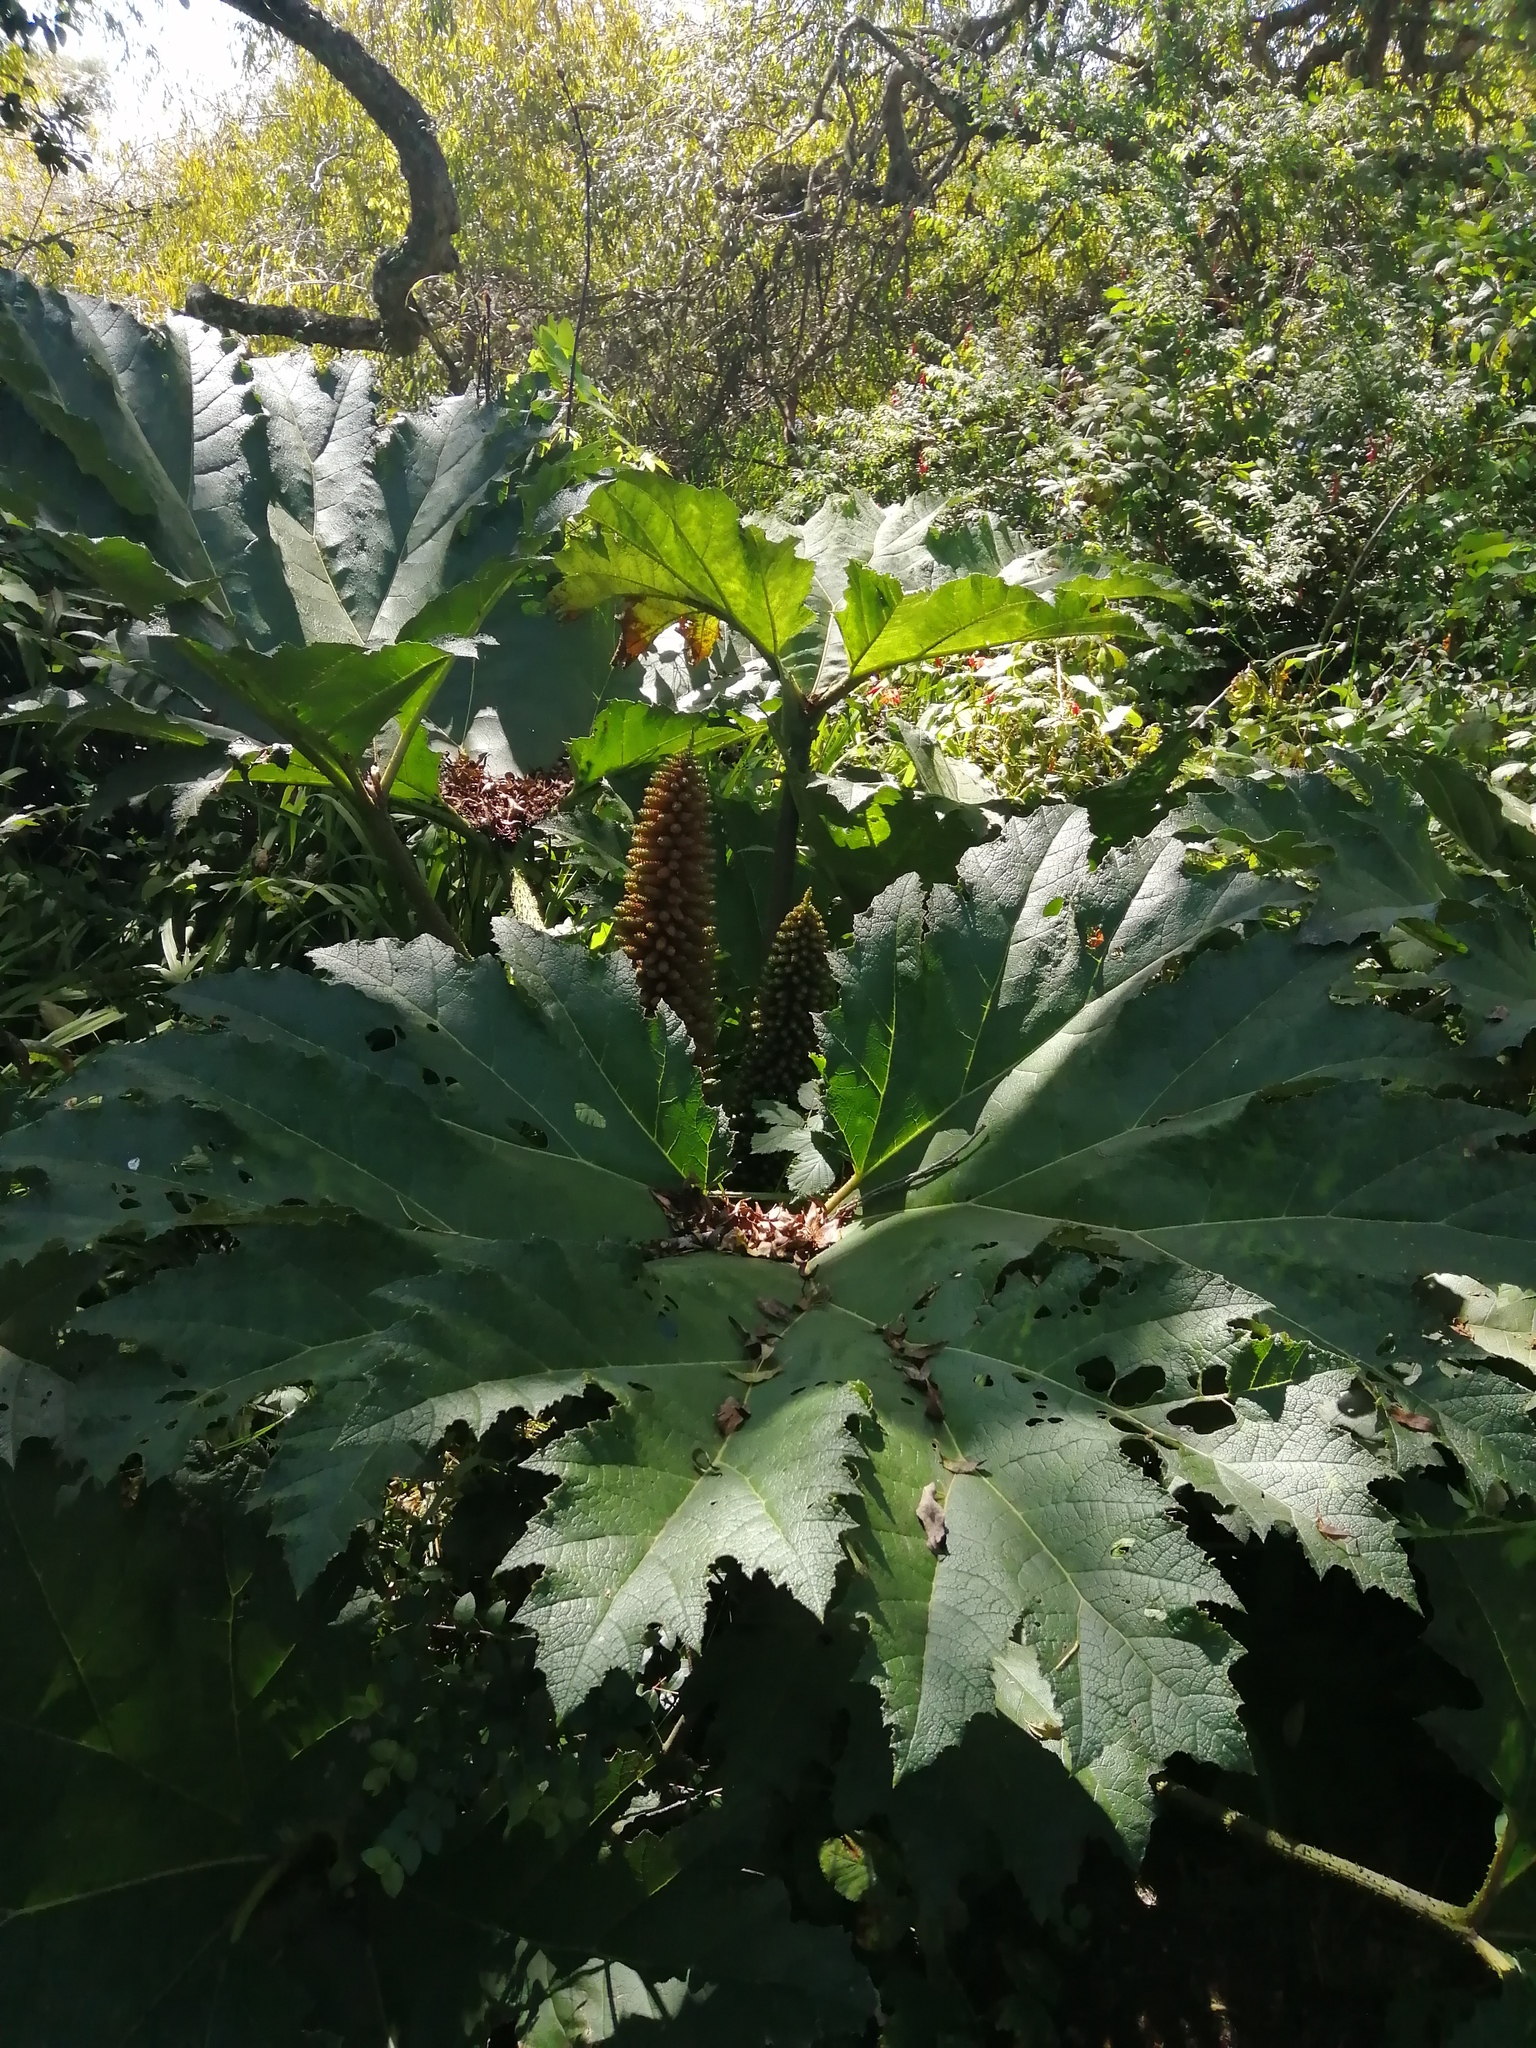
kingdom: Plantae
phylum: Tracheophyta
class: Magnoliopsida
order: Gunnerales
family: Gunneraceae
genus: Gunnera
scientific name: Gunnera tinctoria
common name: Giant-rhubarb
